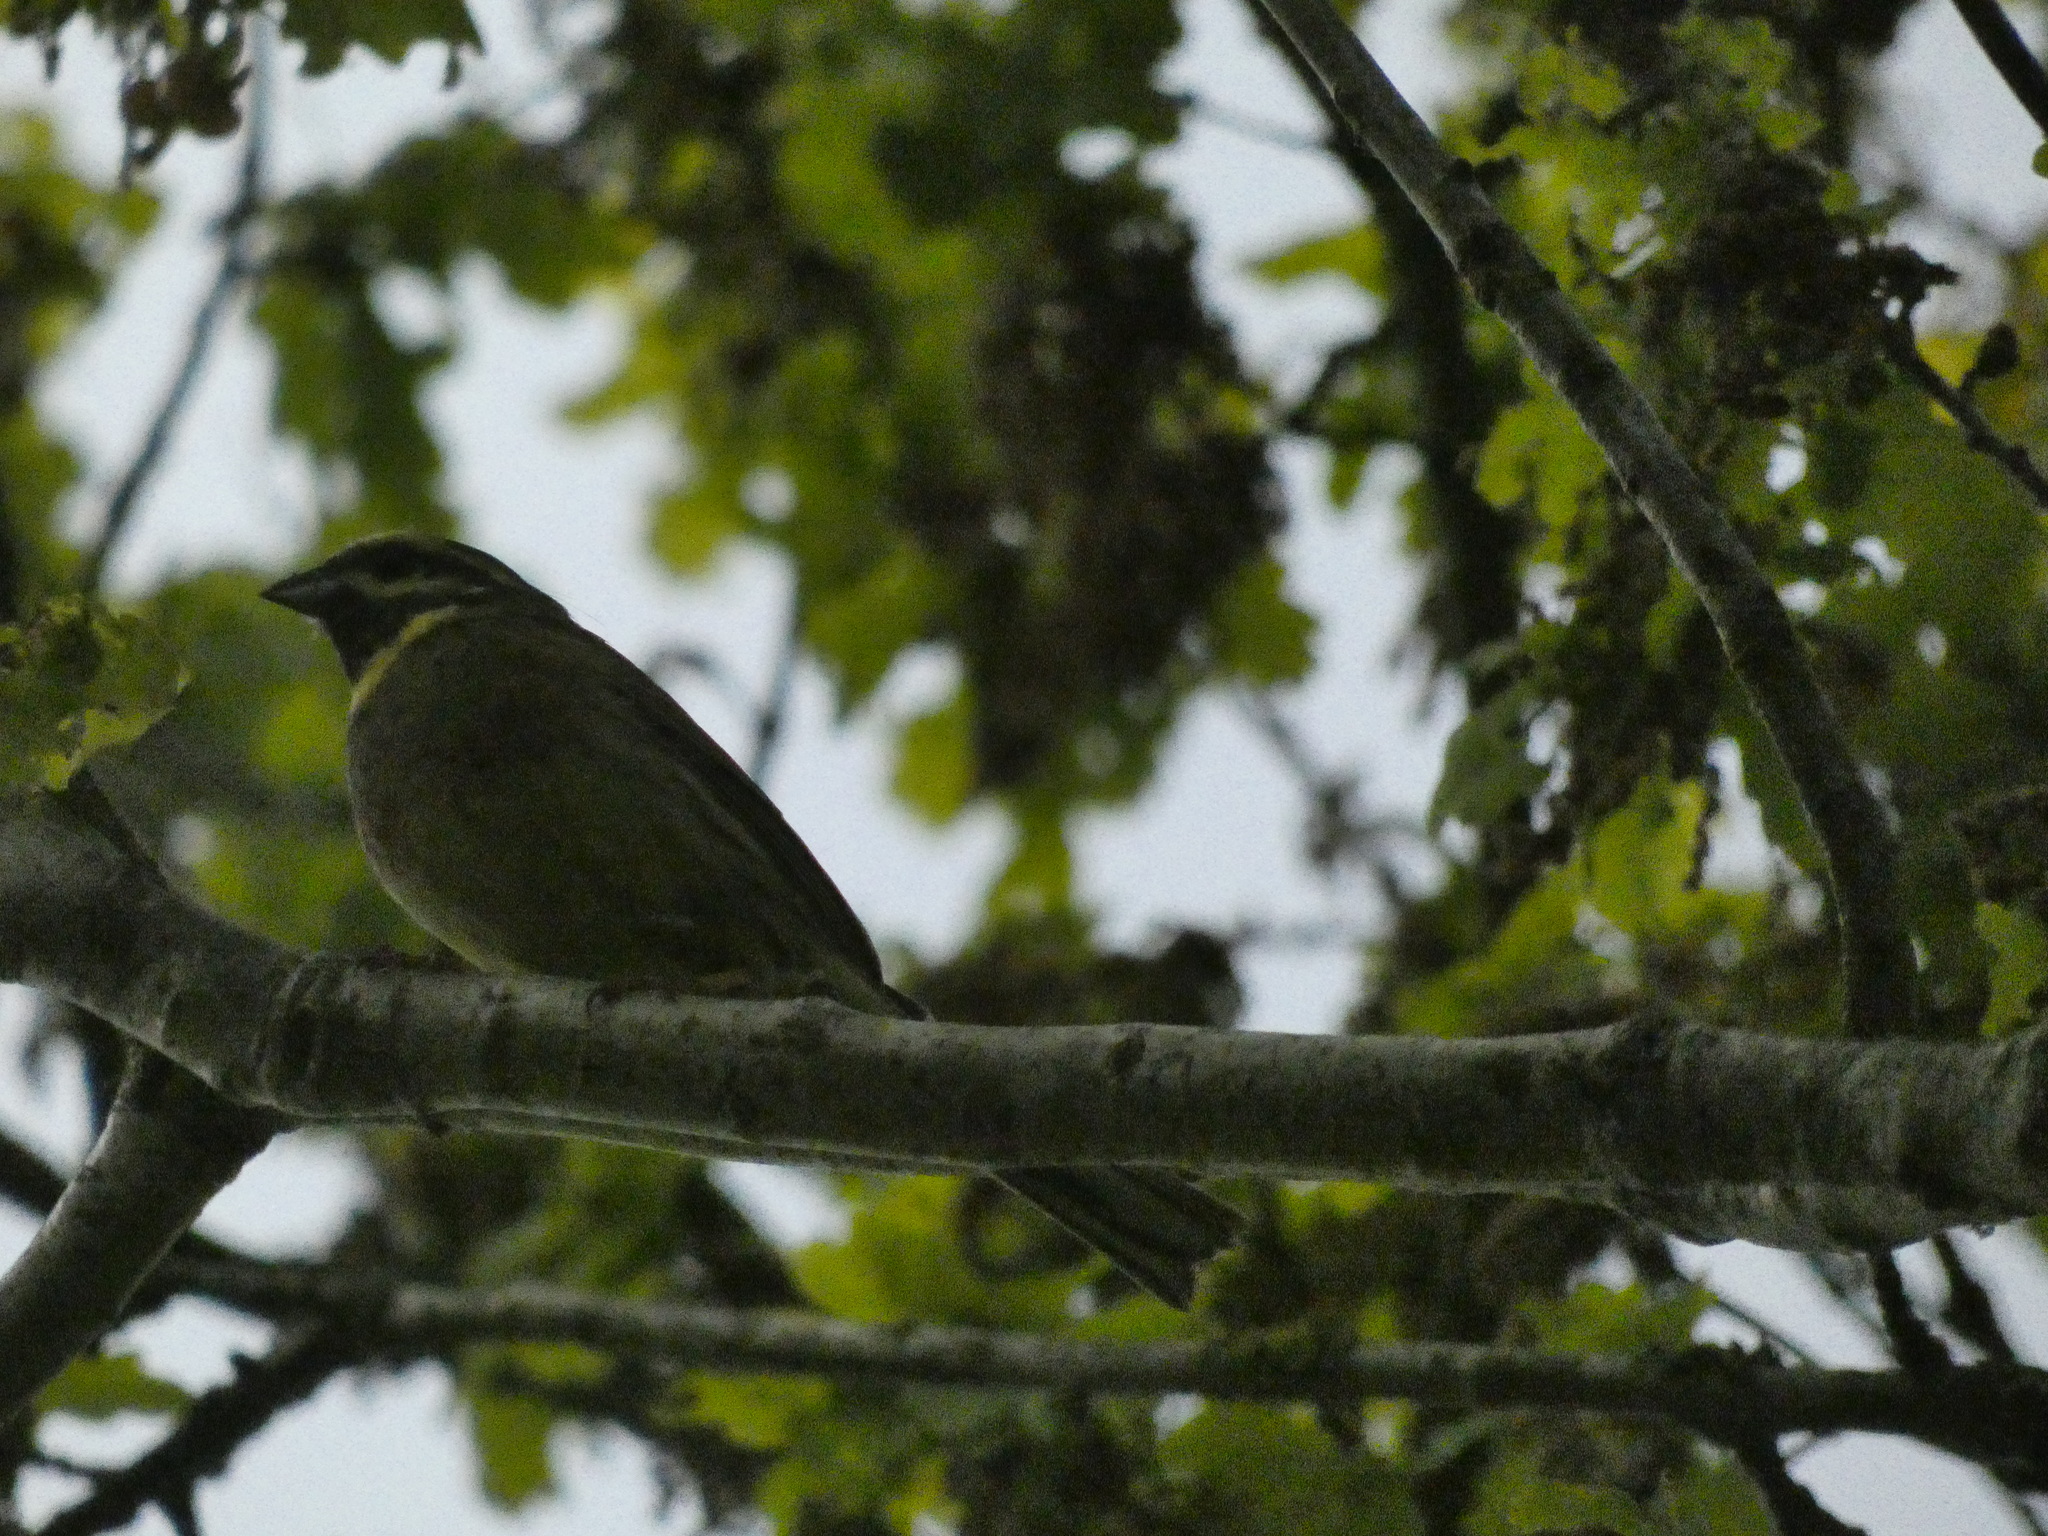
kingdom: Animalia
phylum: Chordata
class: Aves
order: Passeriformes
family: Emberizidae
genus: Emberiza
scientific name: Emberiza cirlus
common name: Cirl bunting
